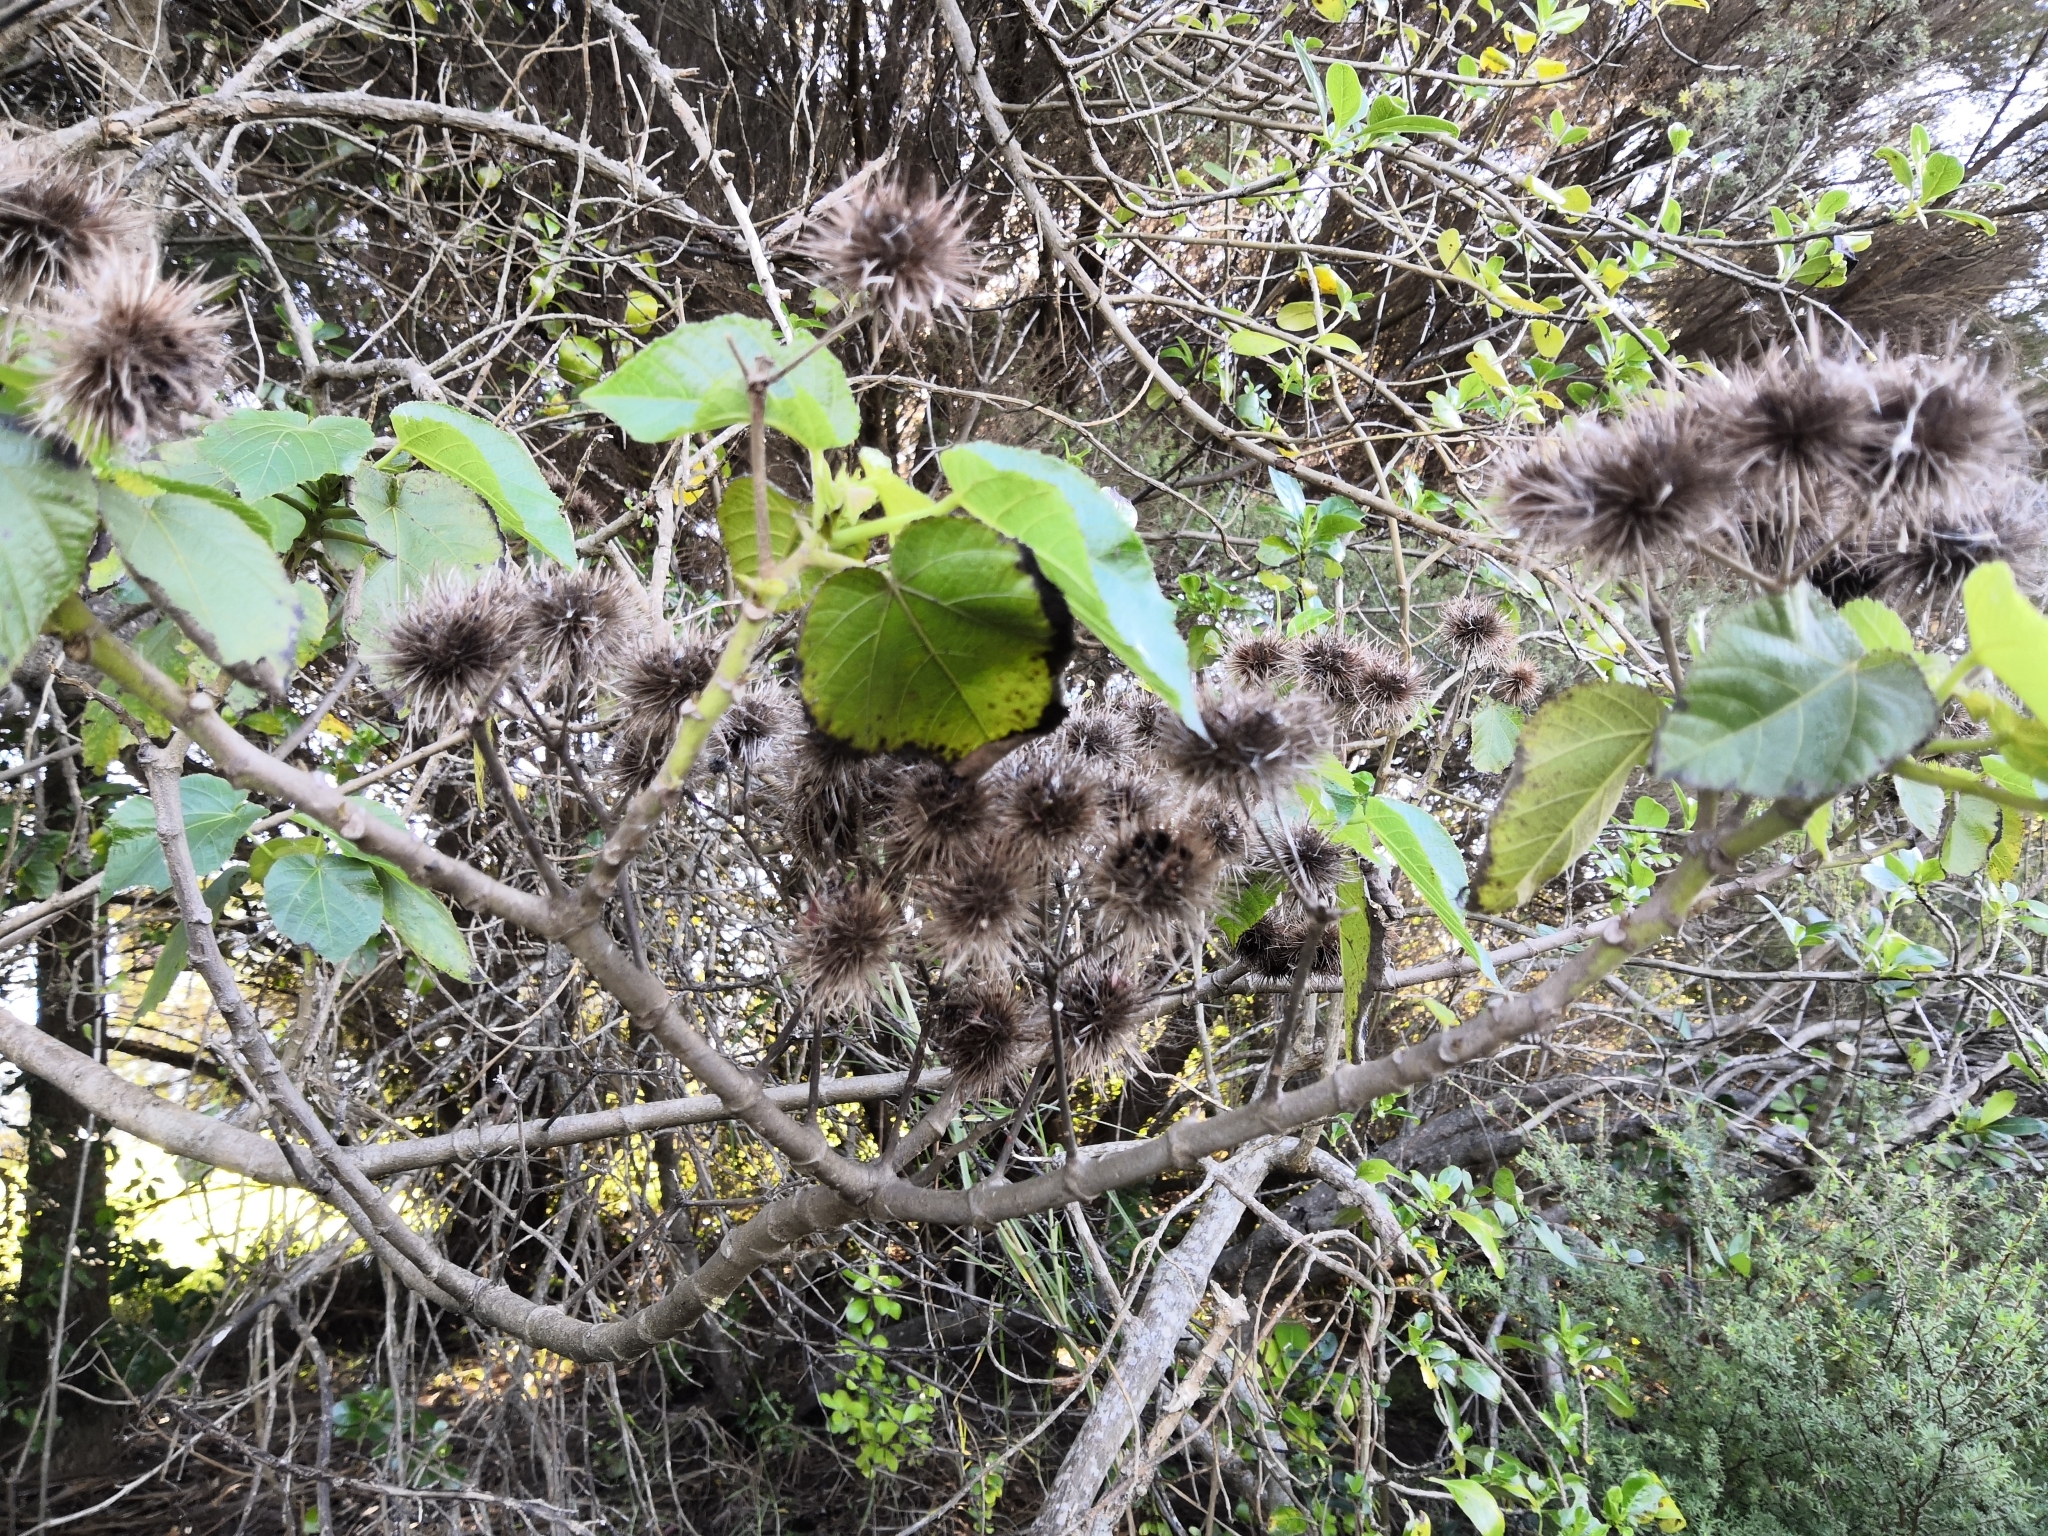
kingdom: Plantae
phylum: Tracheophyta
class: Magnoliopsida
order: Malvales
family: Malvaceae
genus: Entelea
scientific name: Entelea arborescens
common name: New zealand-mulberry
